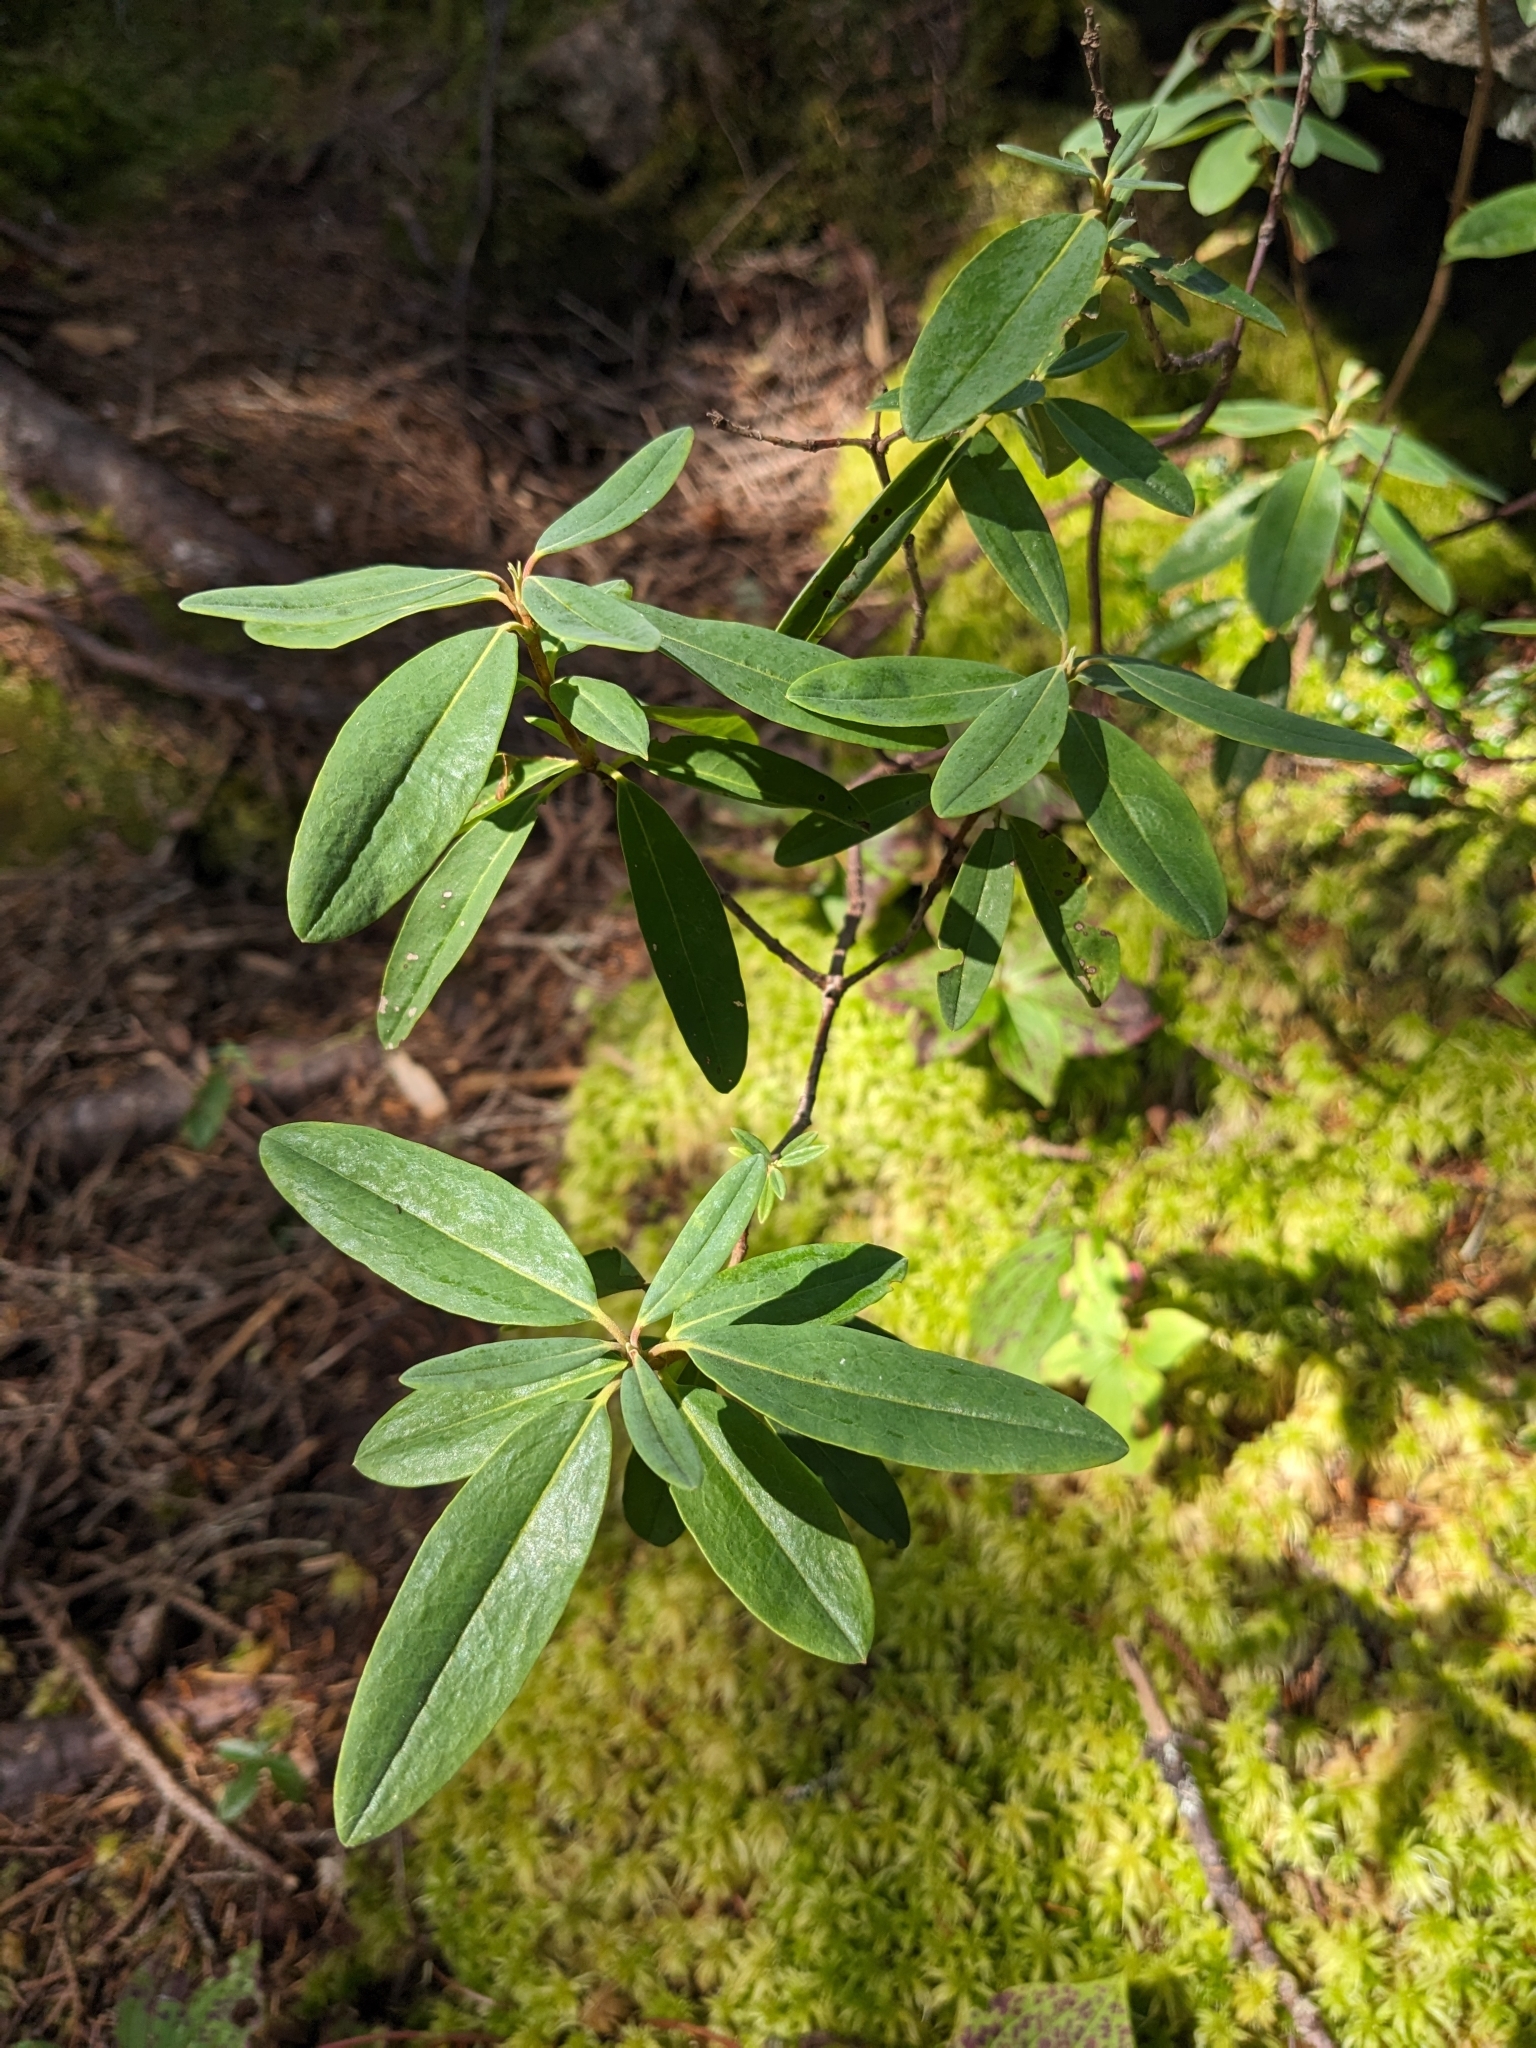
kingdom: Plantae
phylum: Tracheophyta
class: Magnoliopsida
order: Ericales
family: Ericaceae
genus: Kalmia
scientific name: Kalmia angustifolia
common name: Sheep-laurel
